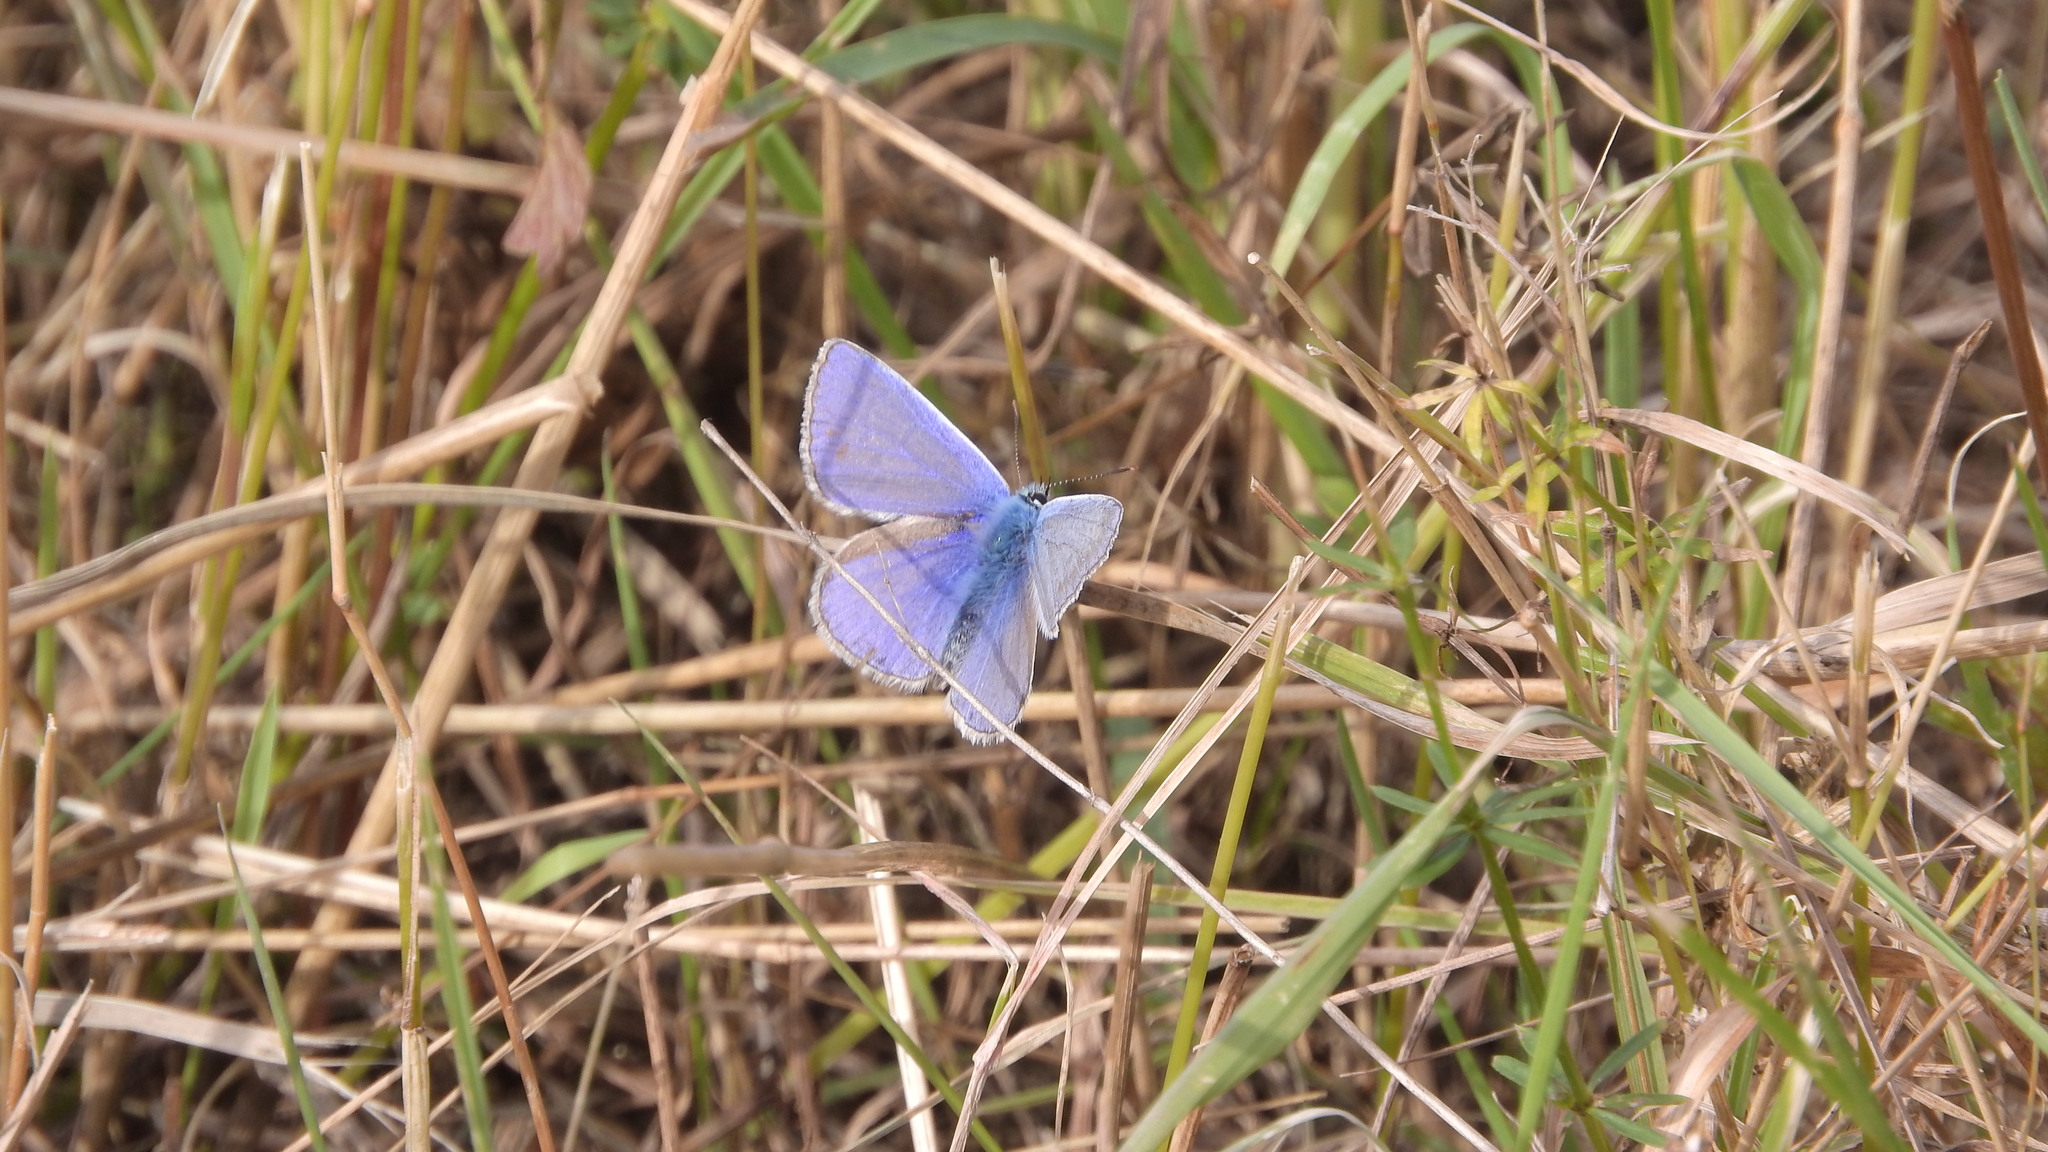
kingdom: Animalia
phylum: Arthropoda
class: Insecta
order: Lepidoptera
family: Lycaenidae
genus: Polyommatus
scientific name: Polyommatus icarus
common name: Common blue
